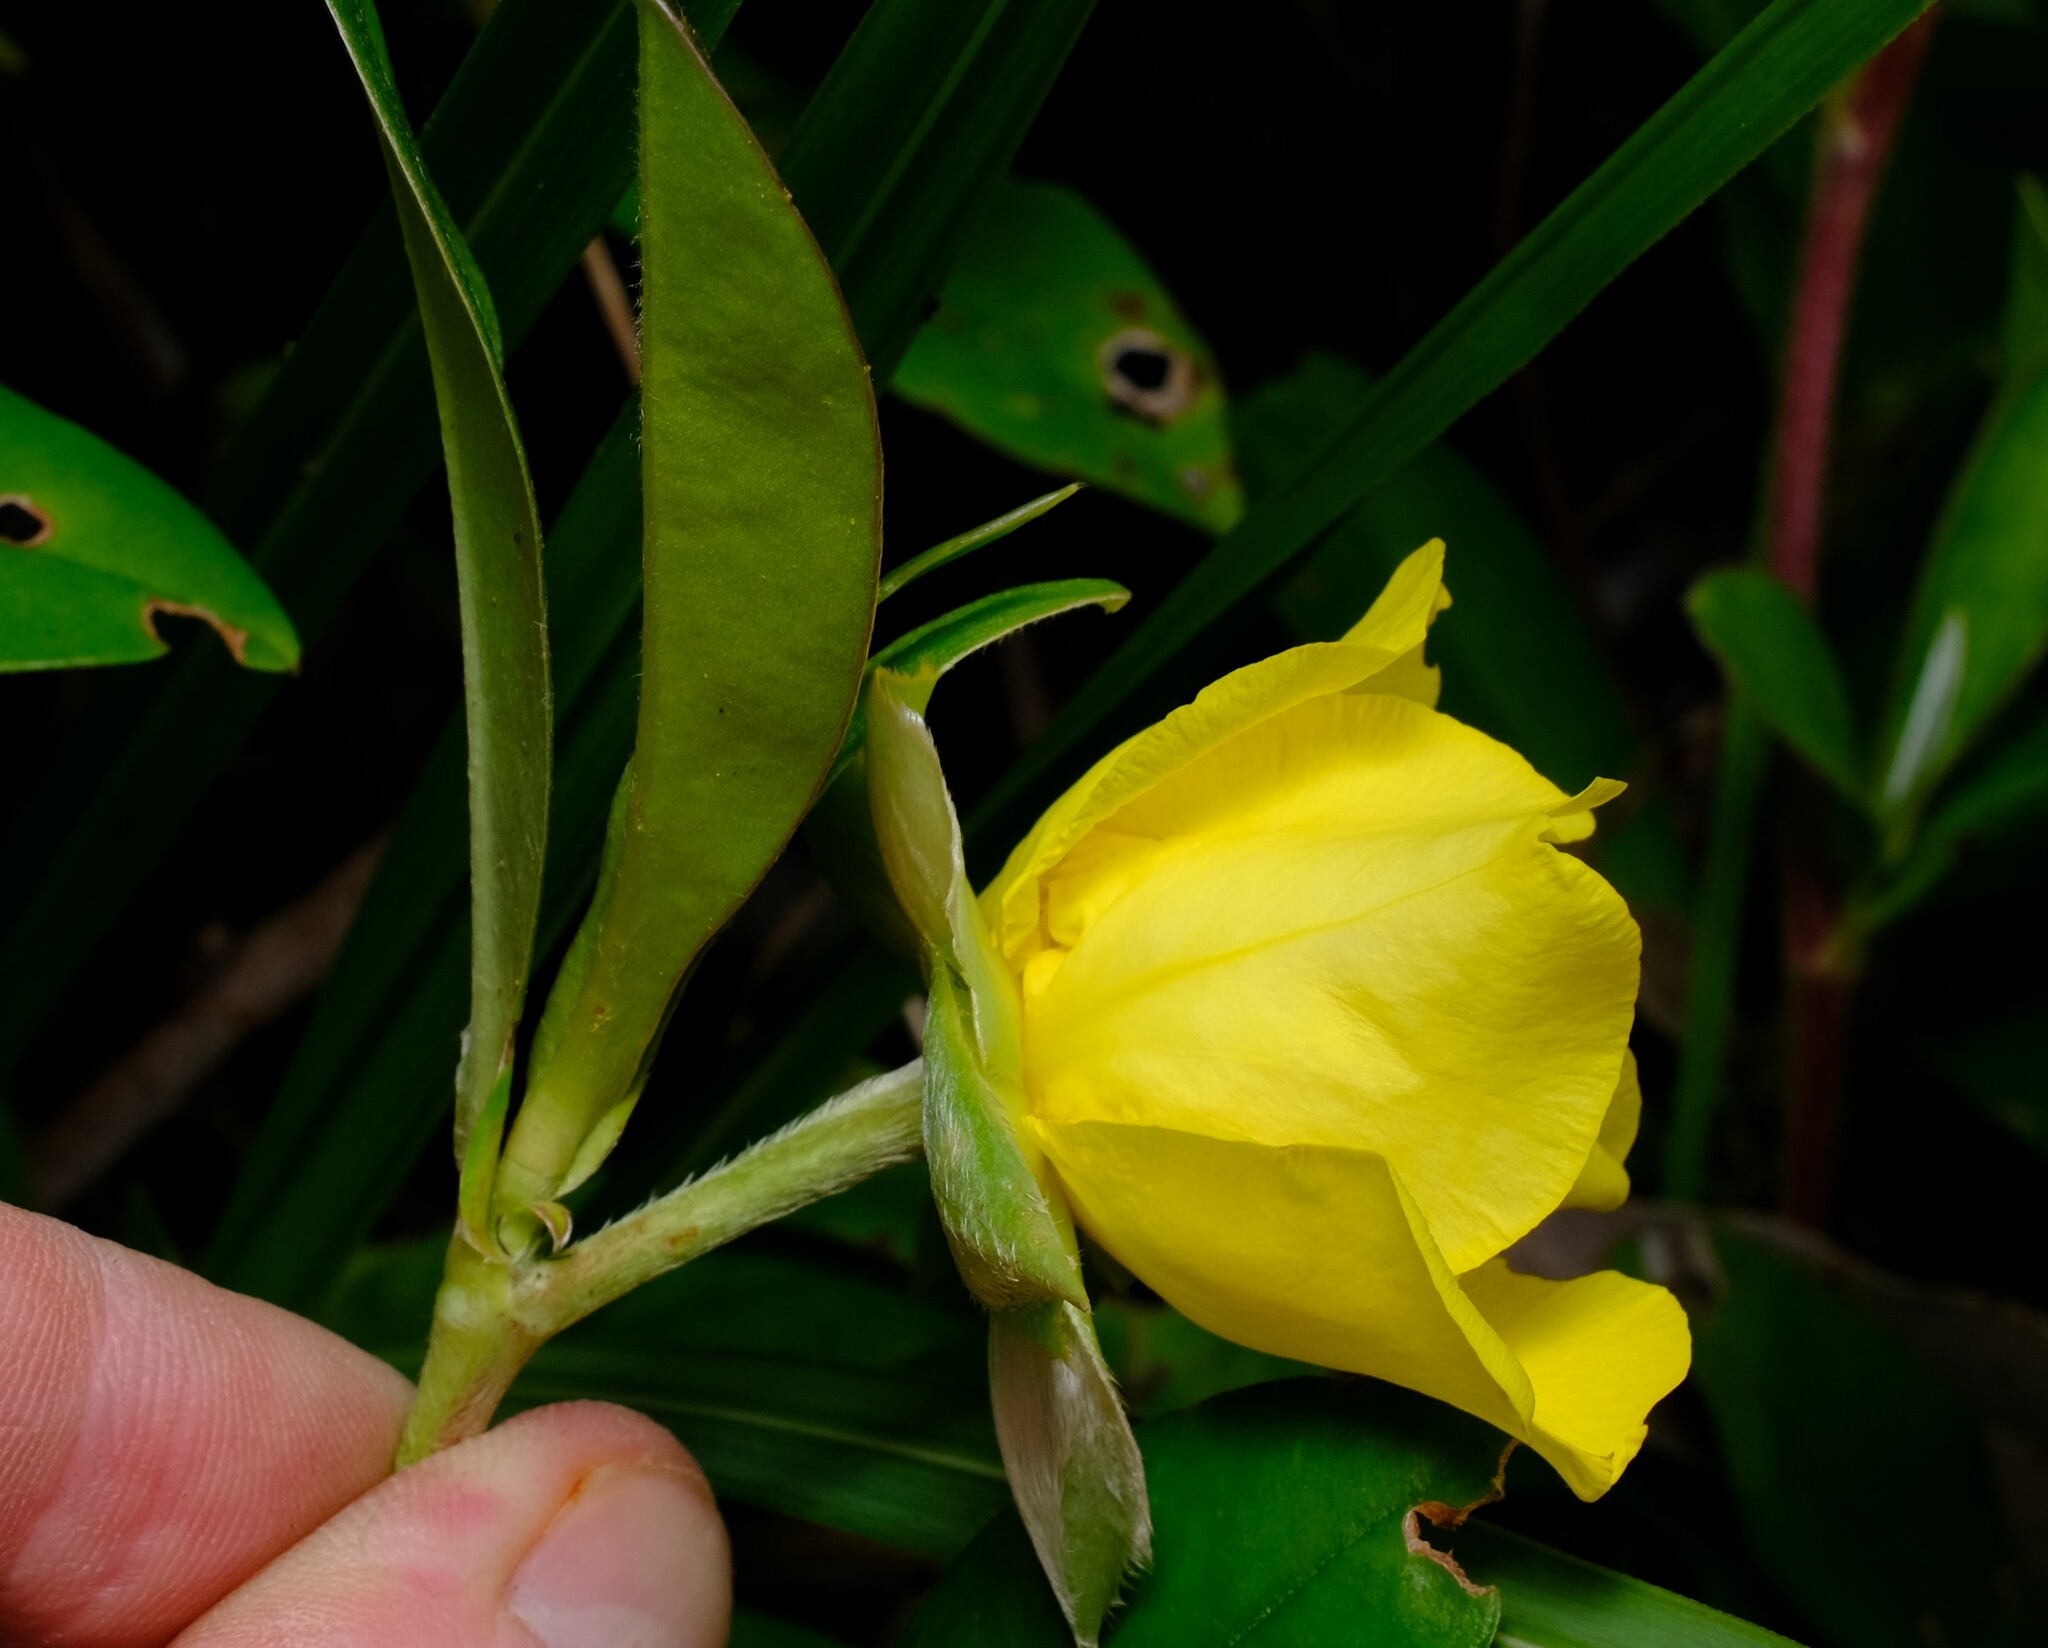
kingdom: Plantae
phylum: Tracheophyta
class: Magnoliopsida
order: Dilleniales
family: Dilleniaceae
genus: Hibbertia
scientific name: Hibbertia scandens
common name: Climbing guinea-flower
